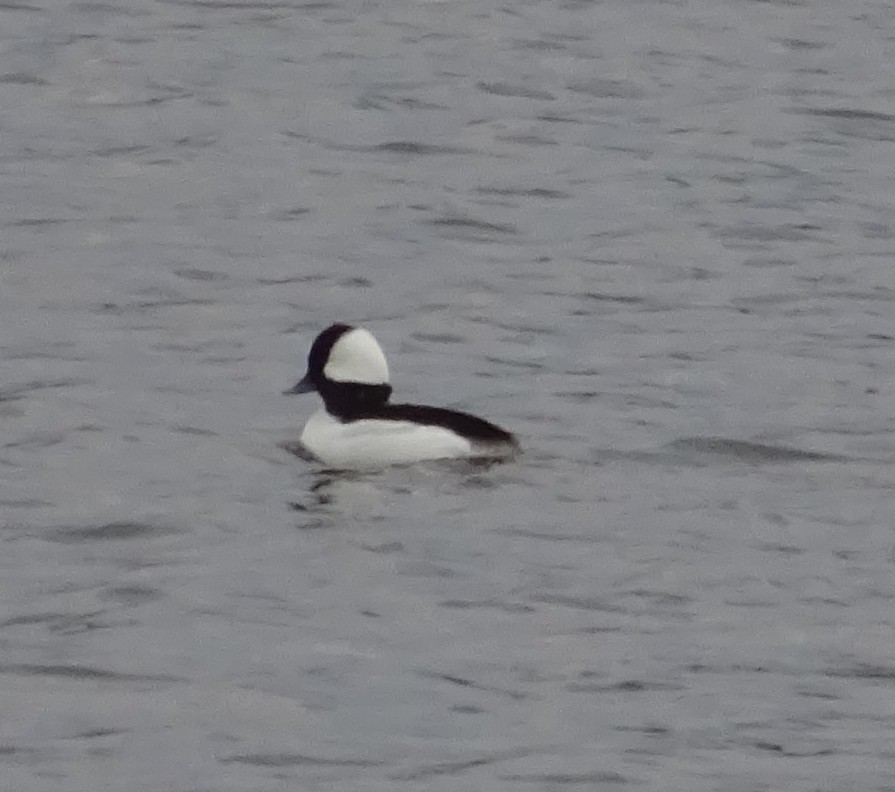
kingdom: Animalia
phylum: Chordata
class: Aves
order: Anseriformes
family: Anatidae
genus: Bucephala
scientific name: Bucephala albeola
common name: Bufflehead
